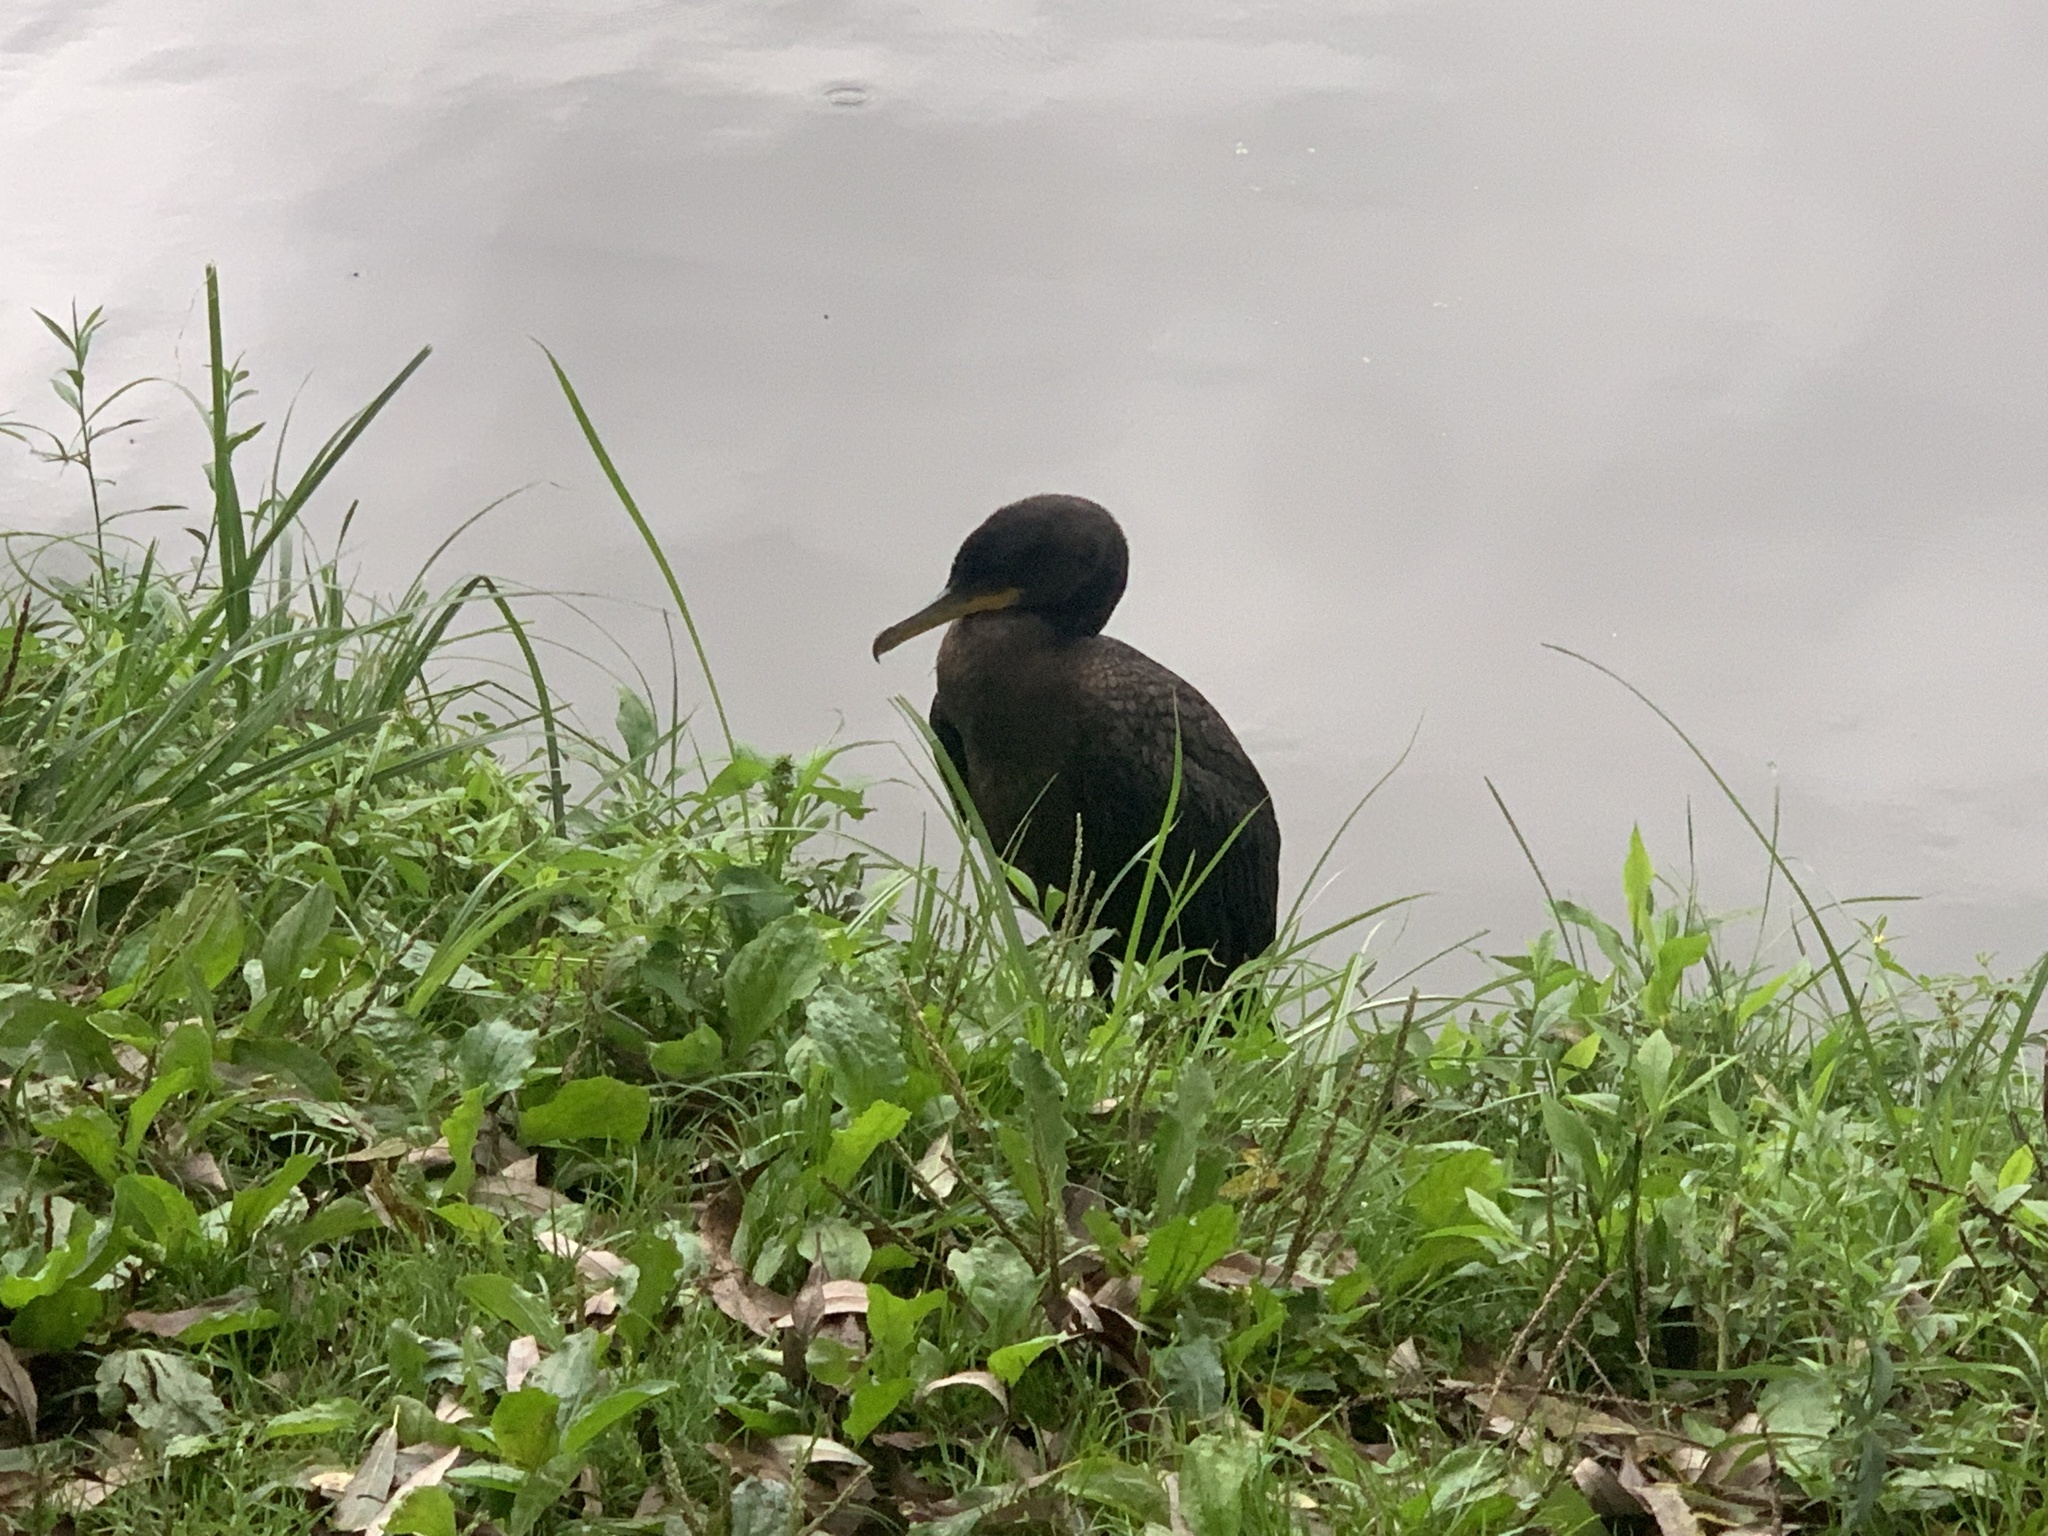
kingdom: Animalia
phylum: Chordata
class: Aves
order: Suliformes
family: Phalacrocoracidae
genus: Phalacrocorax
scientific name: Phalacrocorax auritus
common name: Double-crested cormorant
